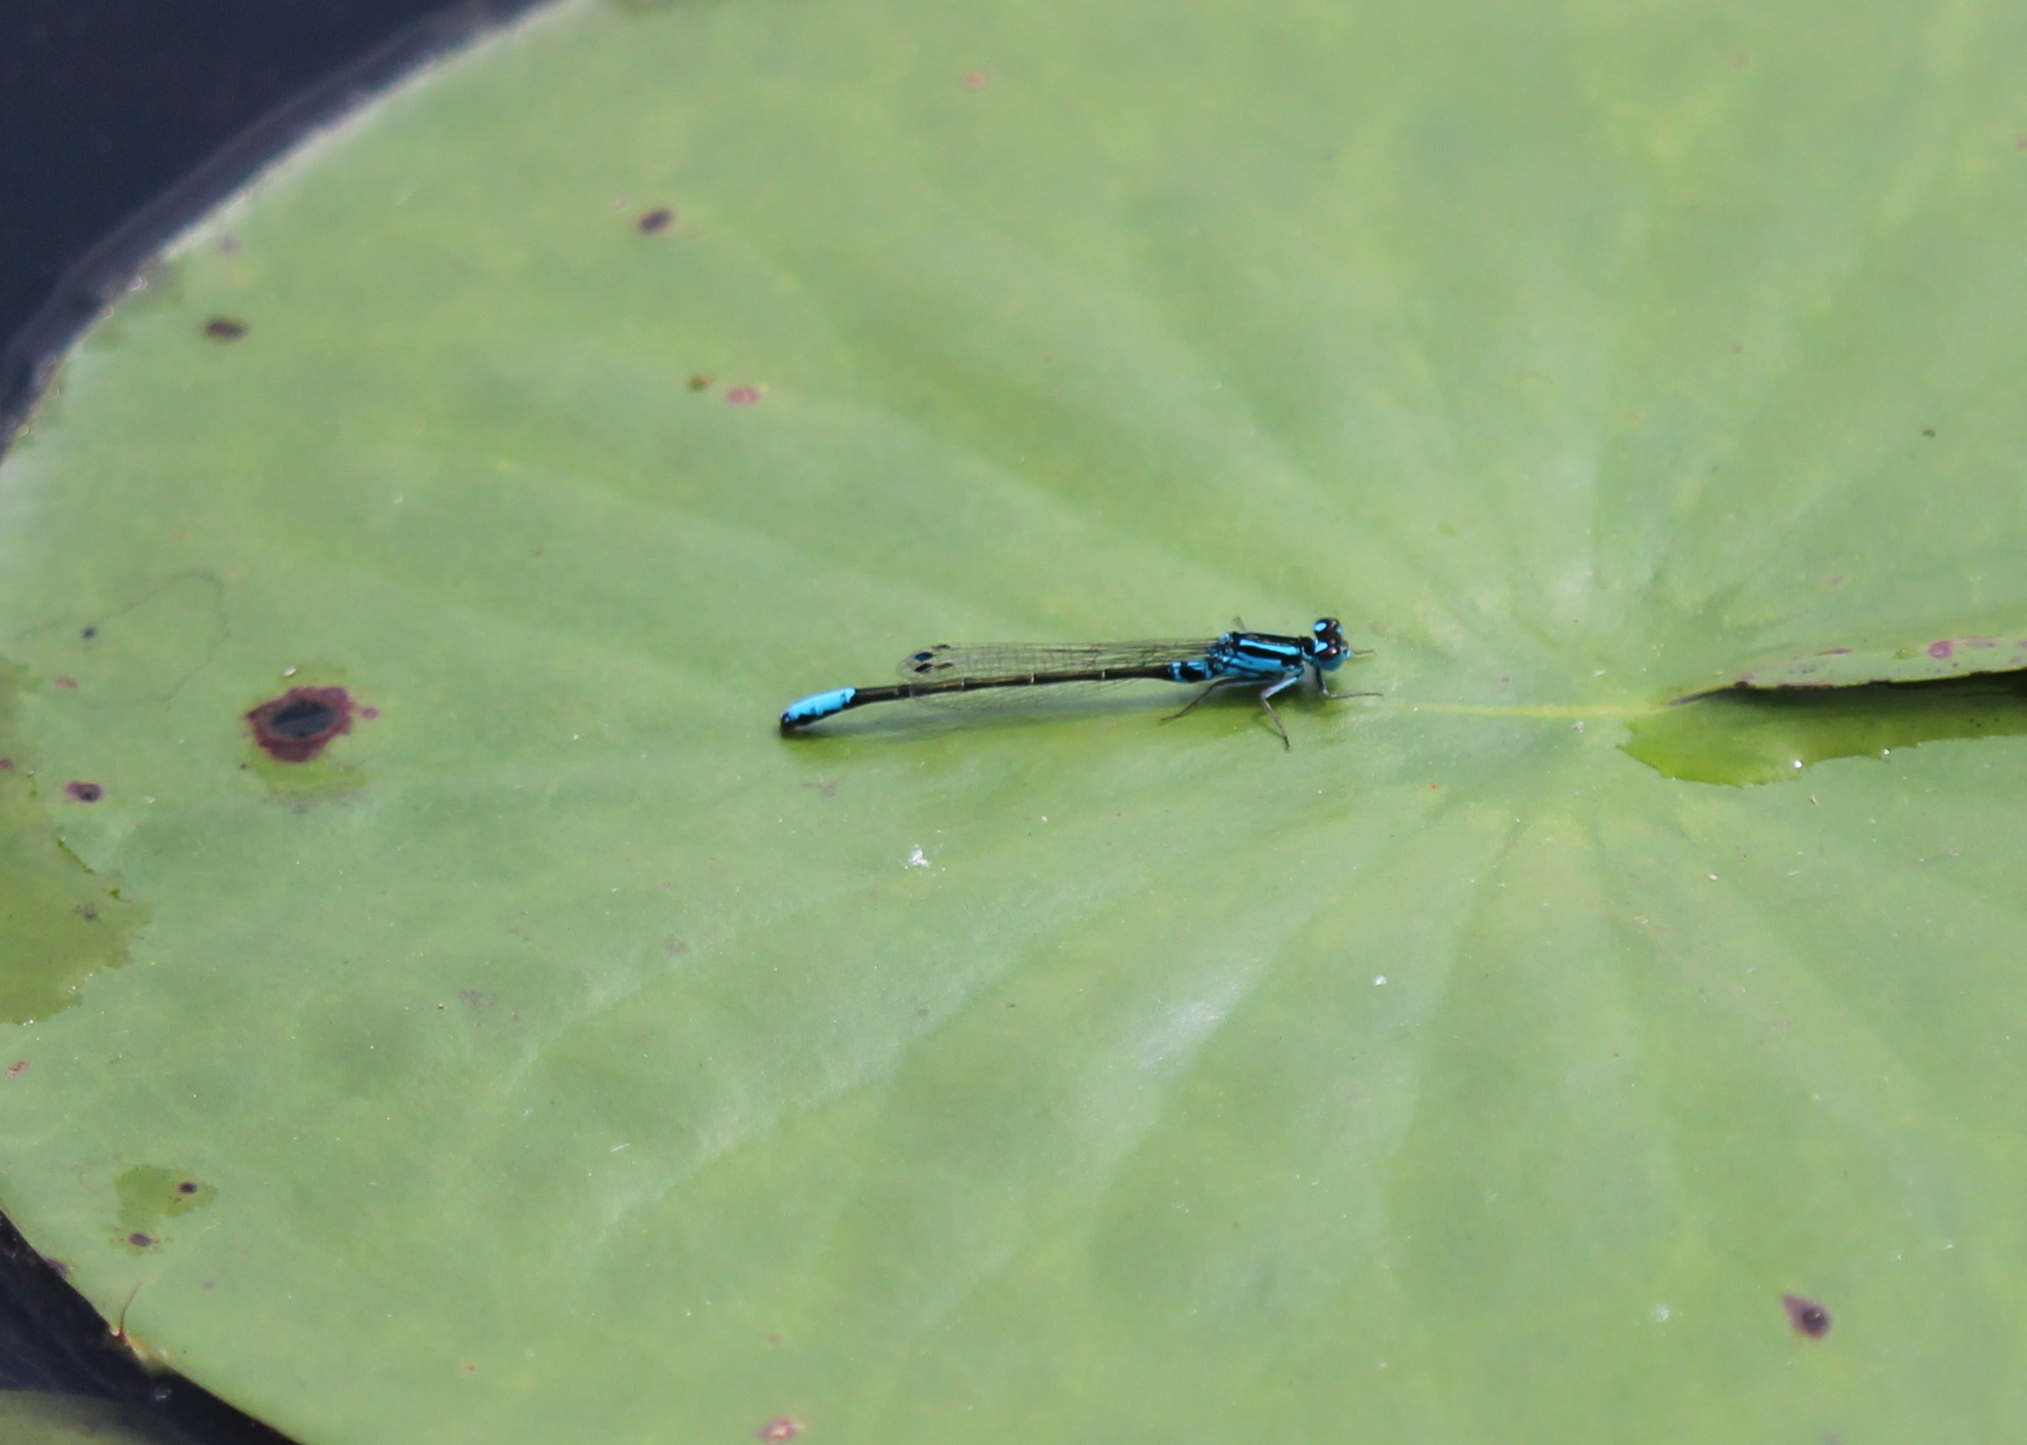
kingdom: Animalia
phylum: Arthropoda
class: Insecta
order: Odonata
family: Coenagrionidae
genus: Ischnura
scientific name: Ischnura kellicotti
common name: Lilypad forktail
